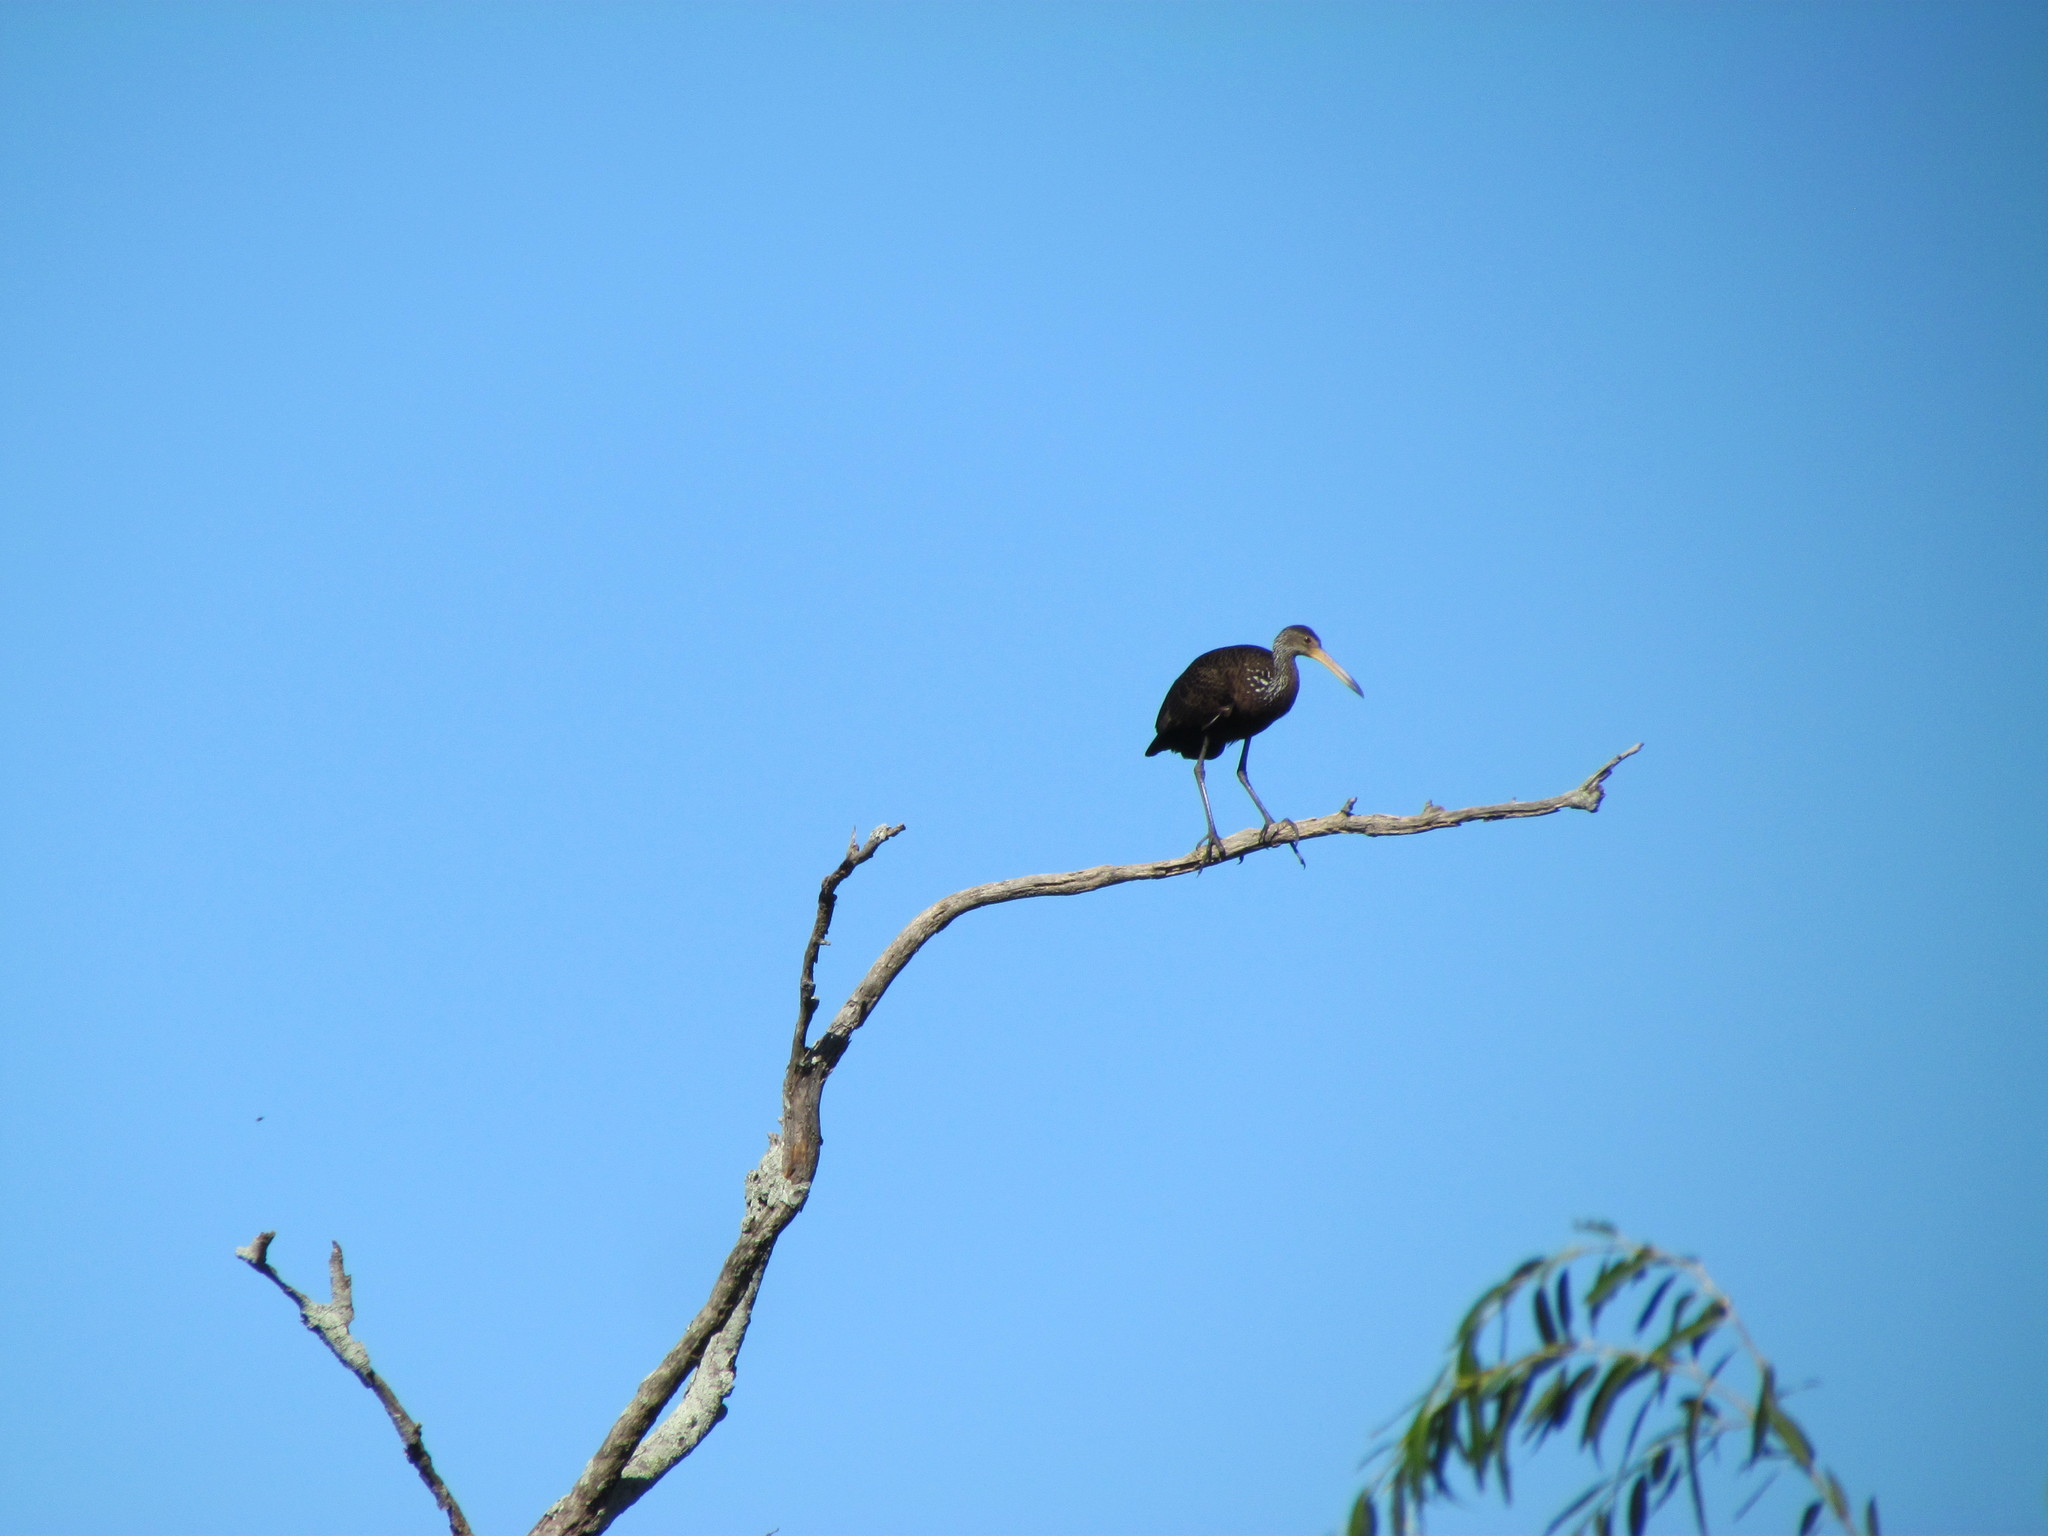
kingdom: Animalia
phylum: Chordata
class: Aves
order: Gruiformes
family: Aramidae
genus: Aramus
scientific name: Aramus guarauna
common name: Limpkin
